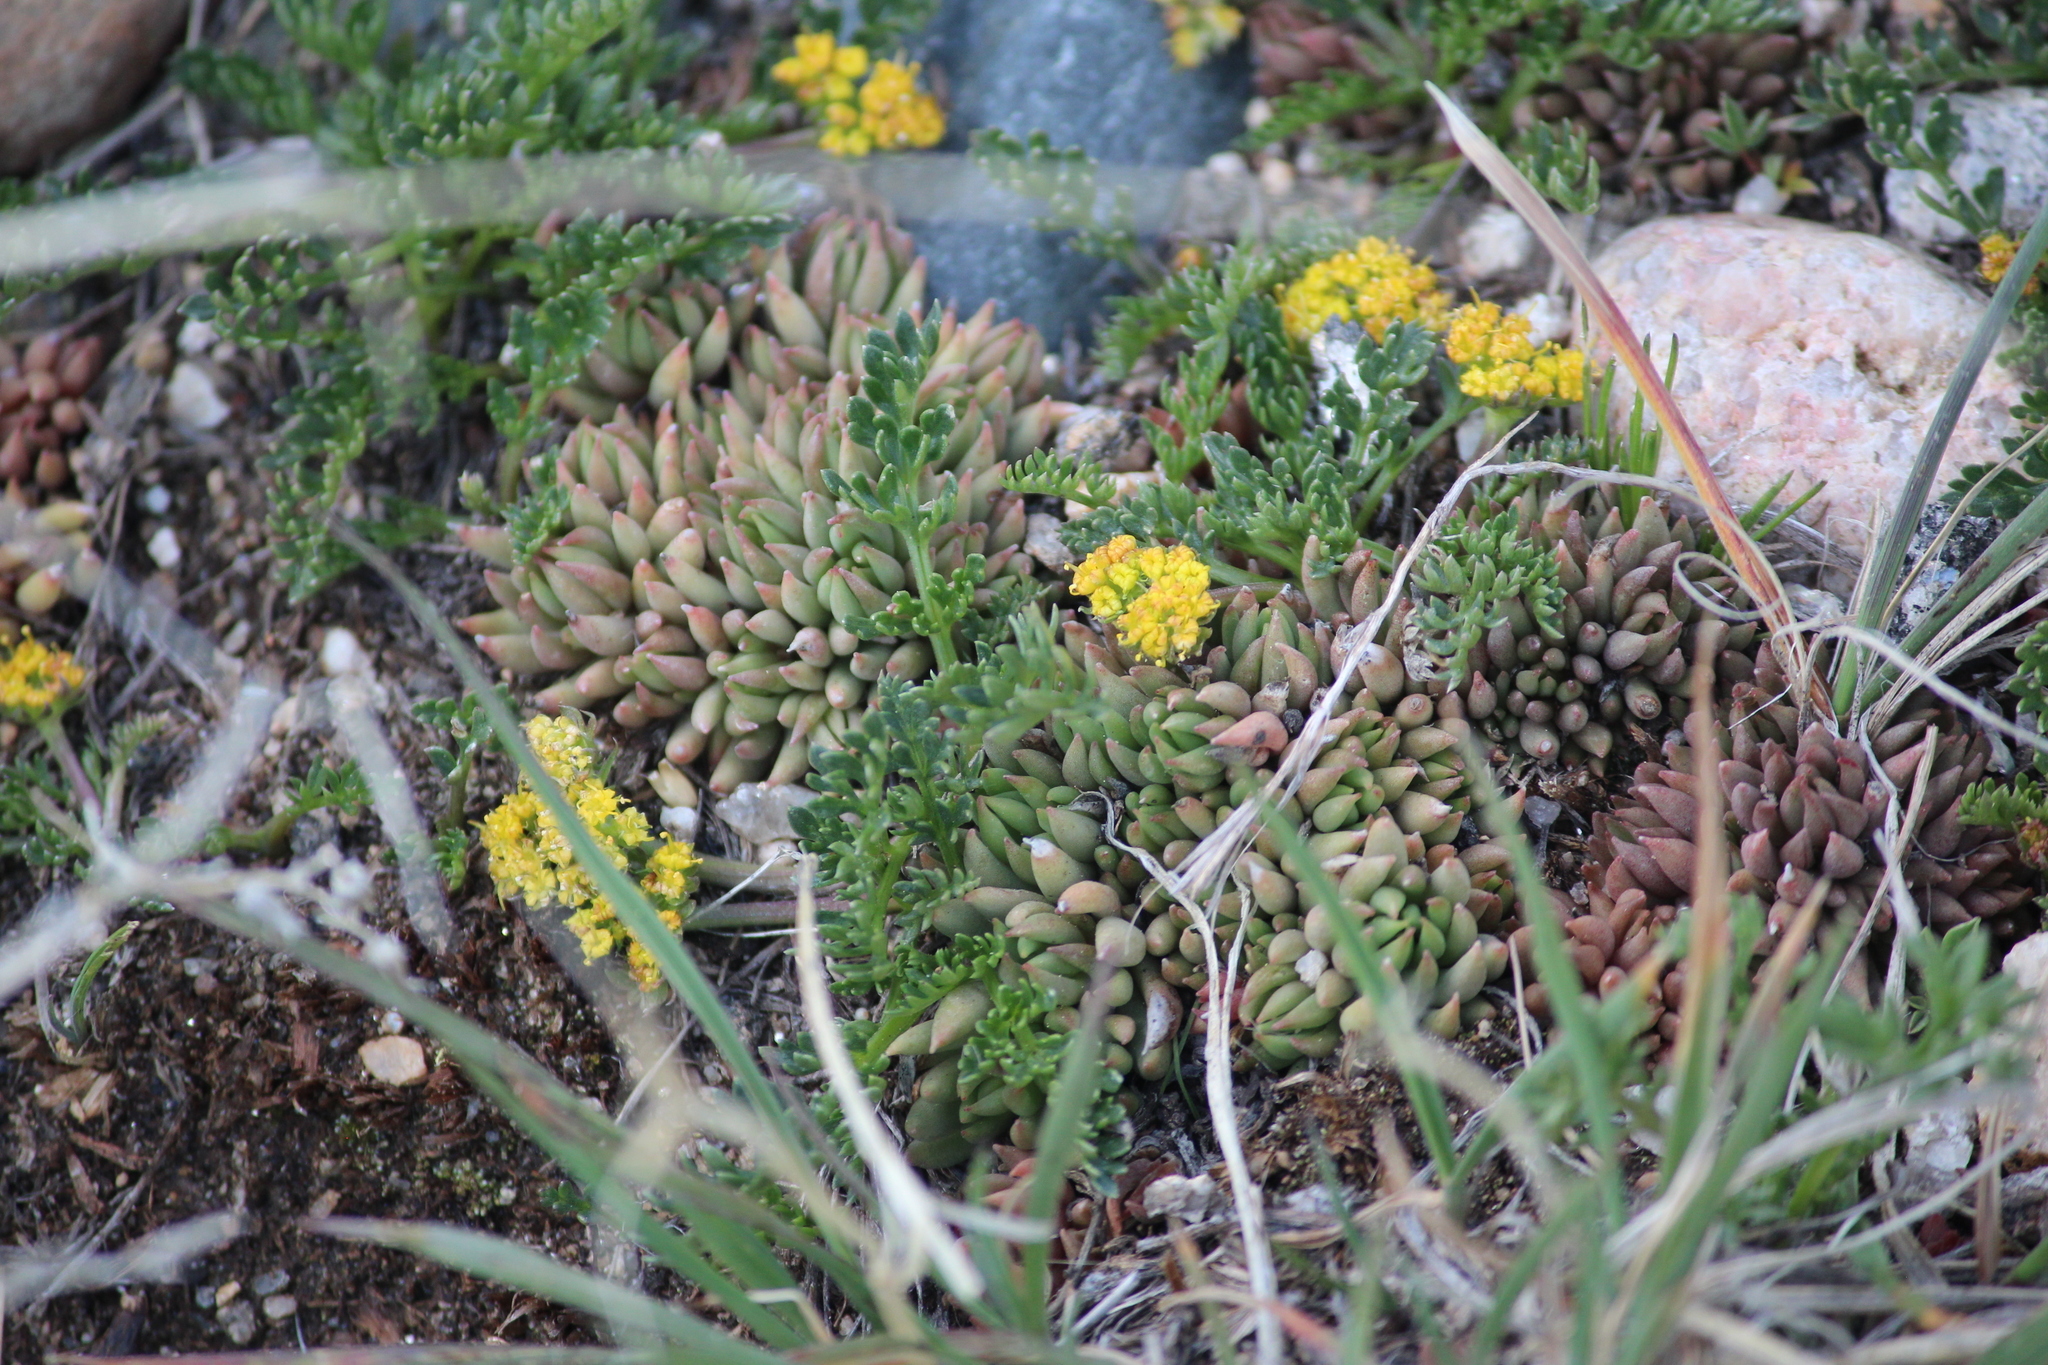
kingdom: Plantae
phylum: Tracheophyta
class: Magnoliopsida
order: Saxifragales
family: Crassulaceae
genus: Sedum
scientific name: Sedum lanceolatum
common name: Common stonecrop
